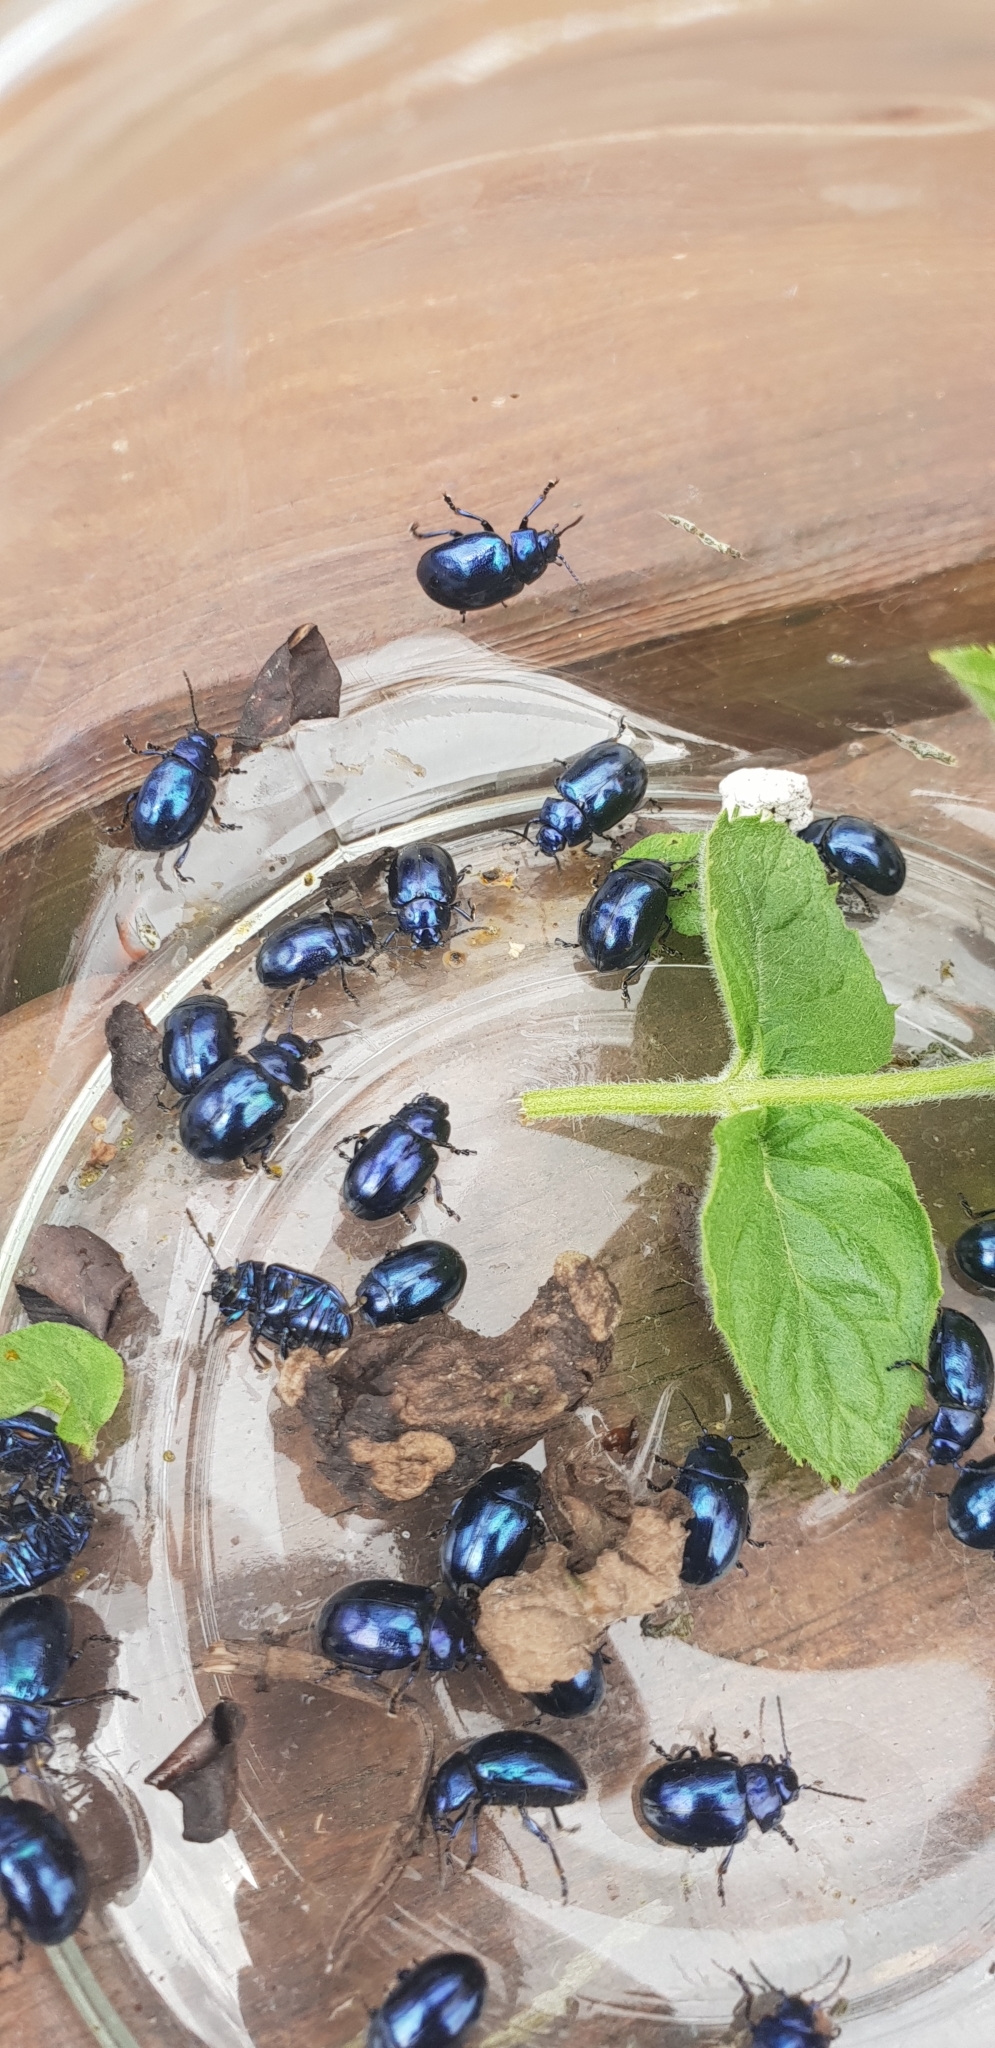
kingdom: Animalia
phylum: Arthropoda
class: Insecta
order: Coleoptera
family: Chrysomelidae
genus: Chrysolina
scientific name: Chrysolina coerulans
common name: Blue mint beetle
